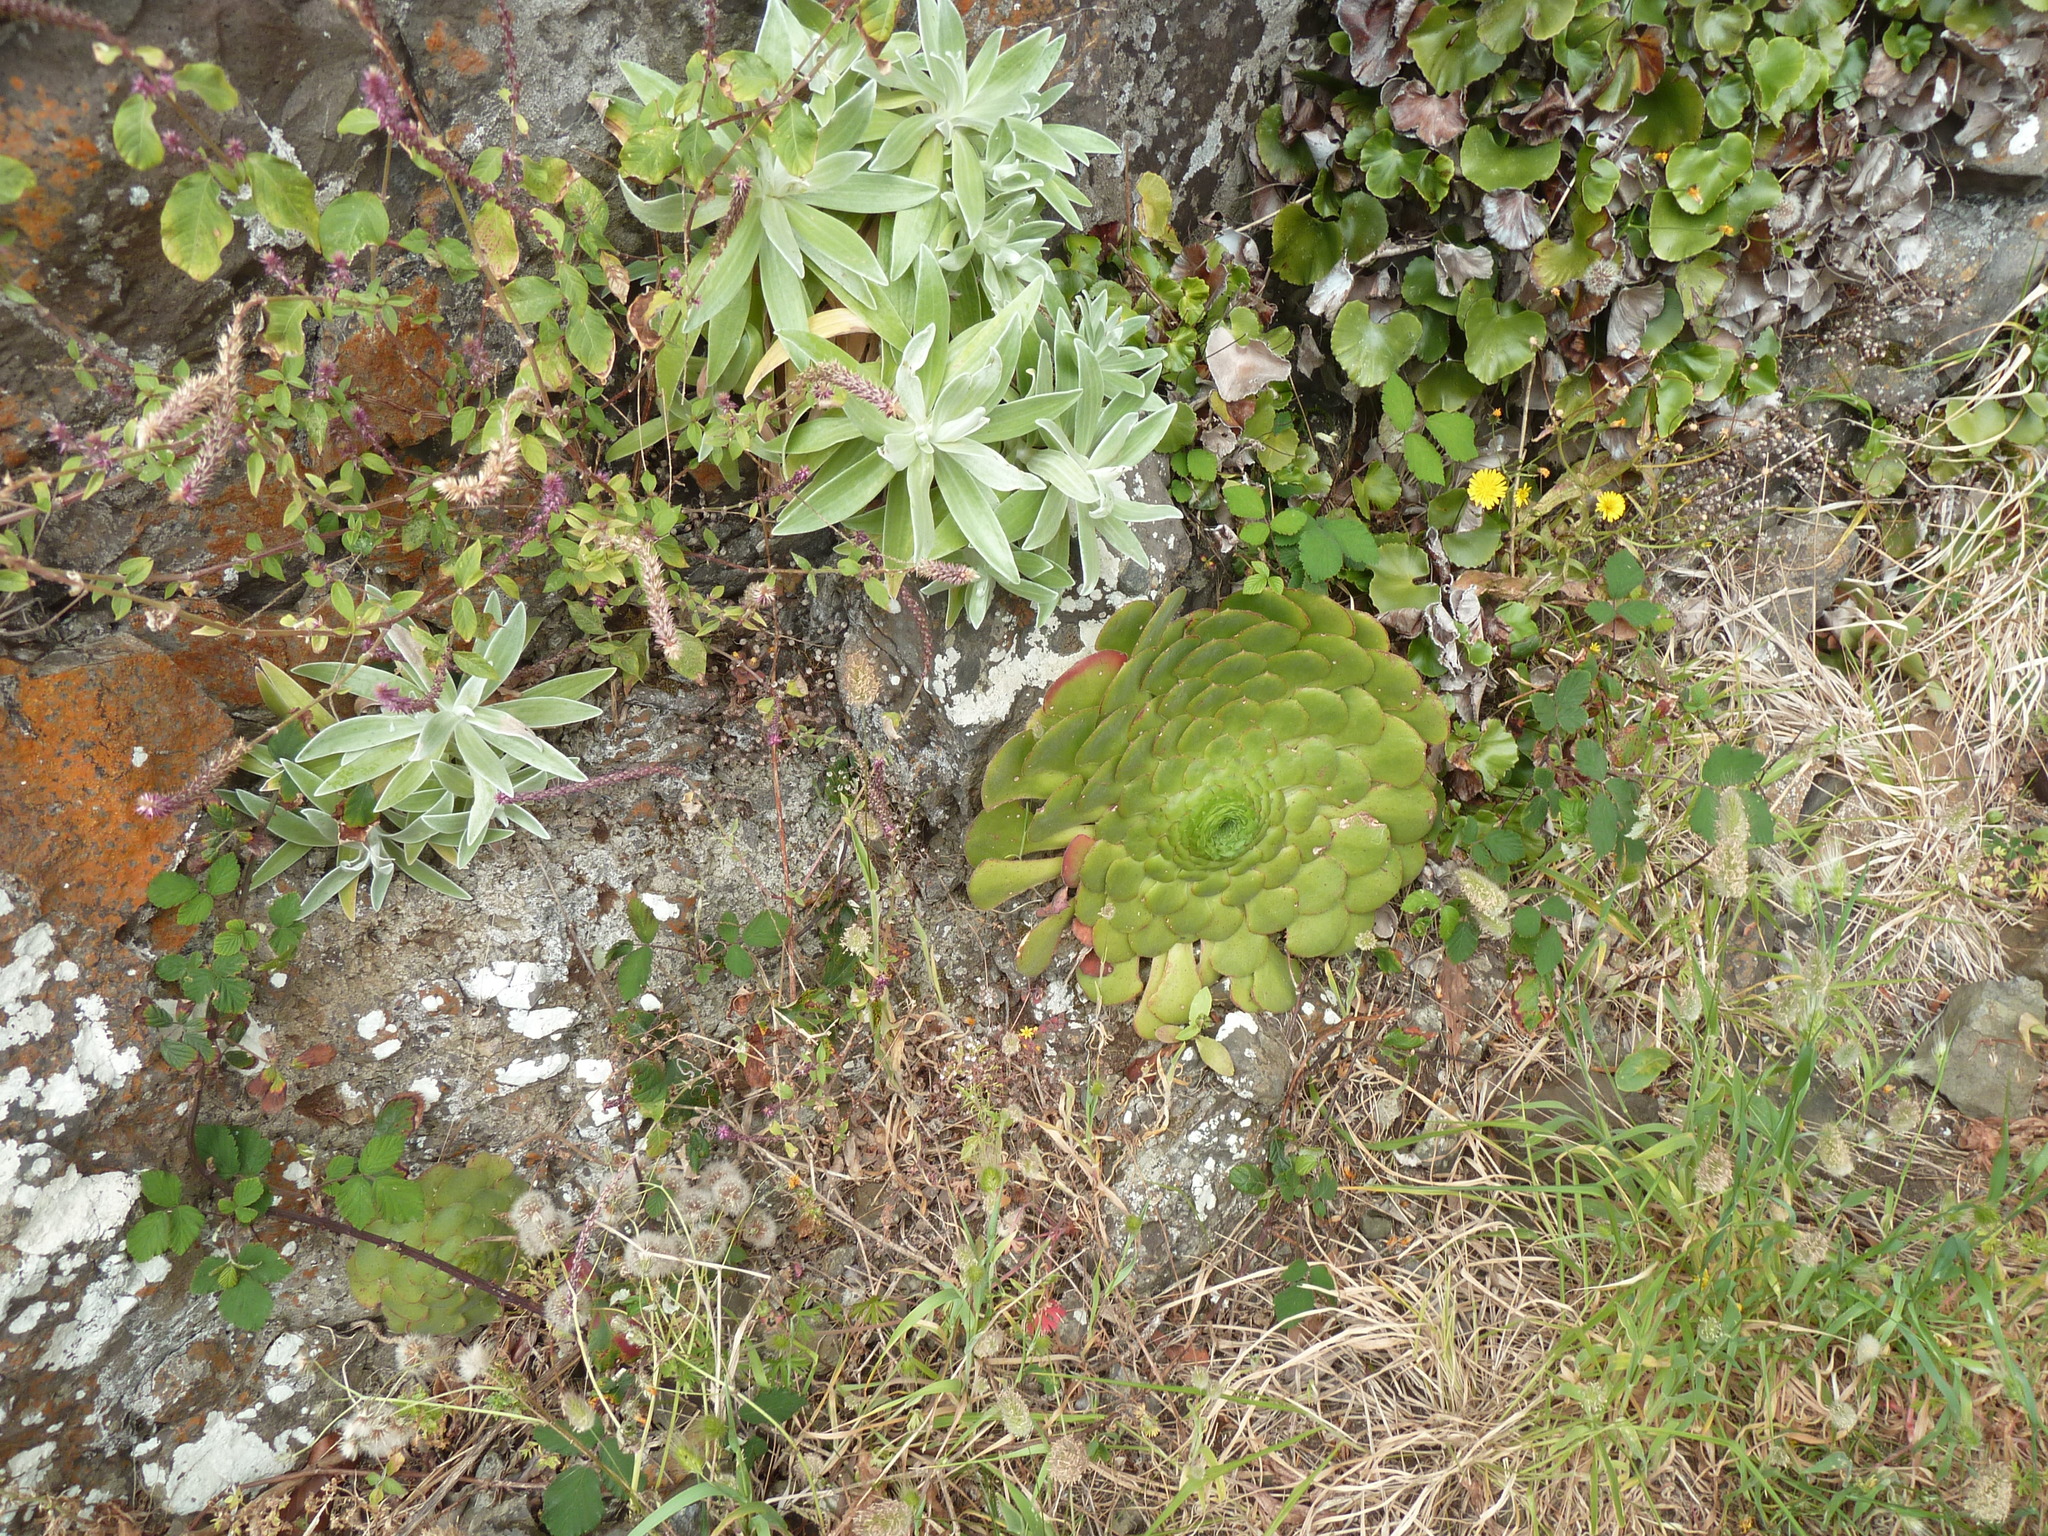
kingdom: Plantae
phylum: Tracheophyta
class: Magnoliopsida
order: Saxifragales
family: Crassulaceae
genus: Aeonium
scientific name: Aeonium glandulosum
